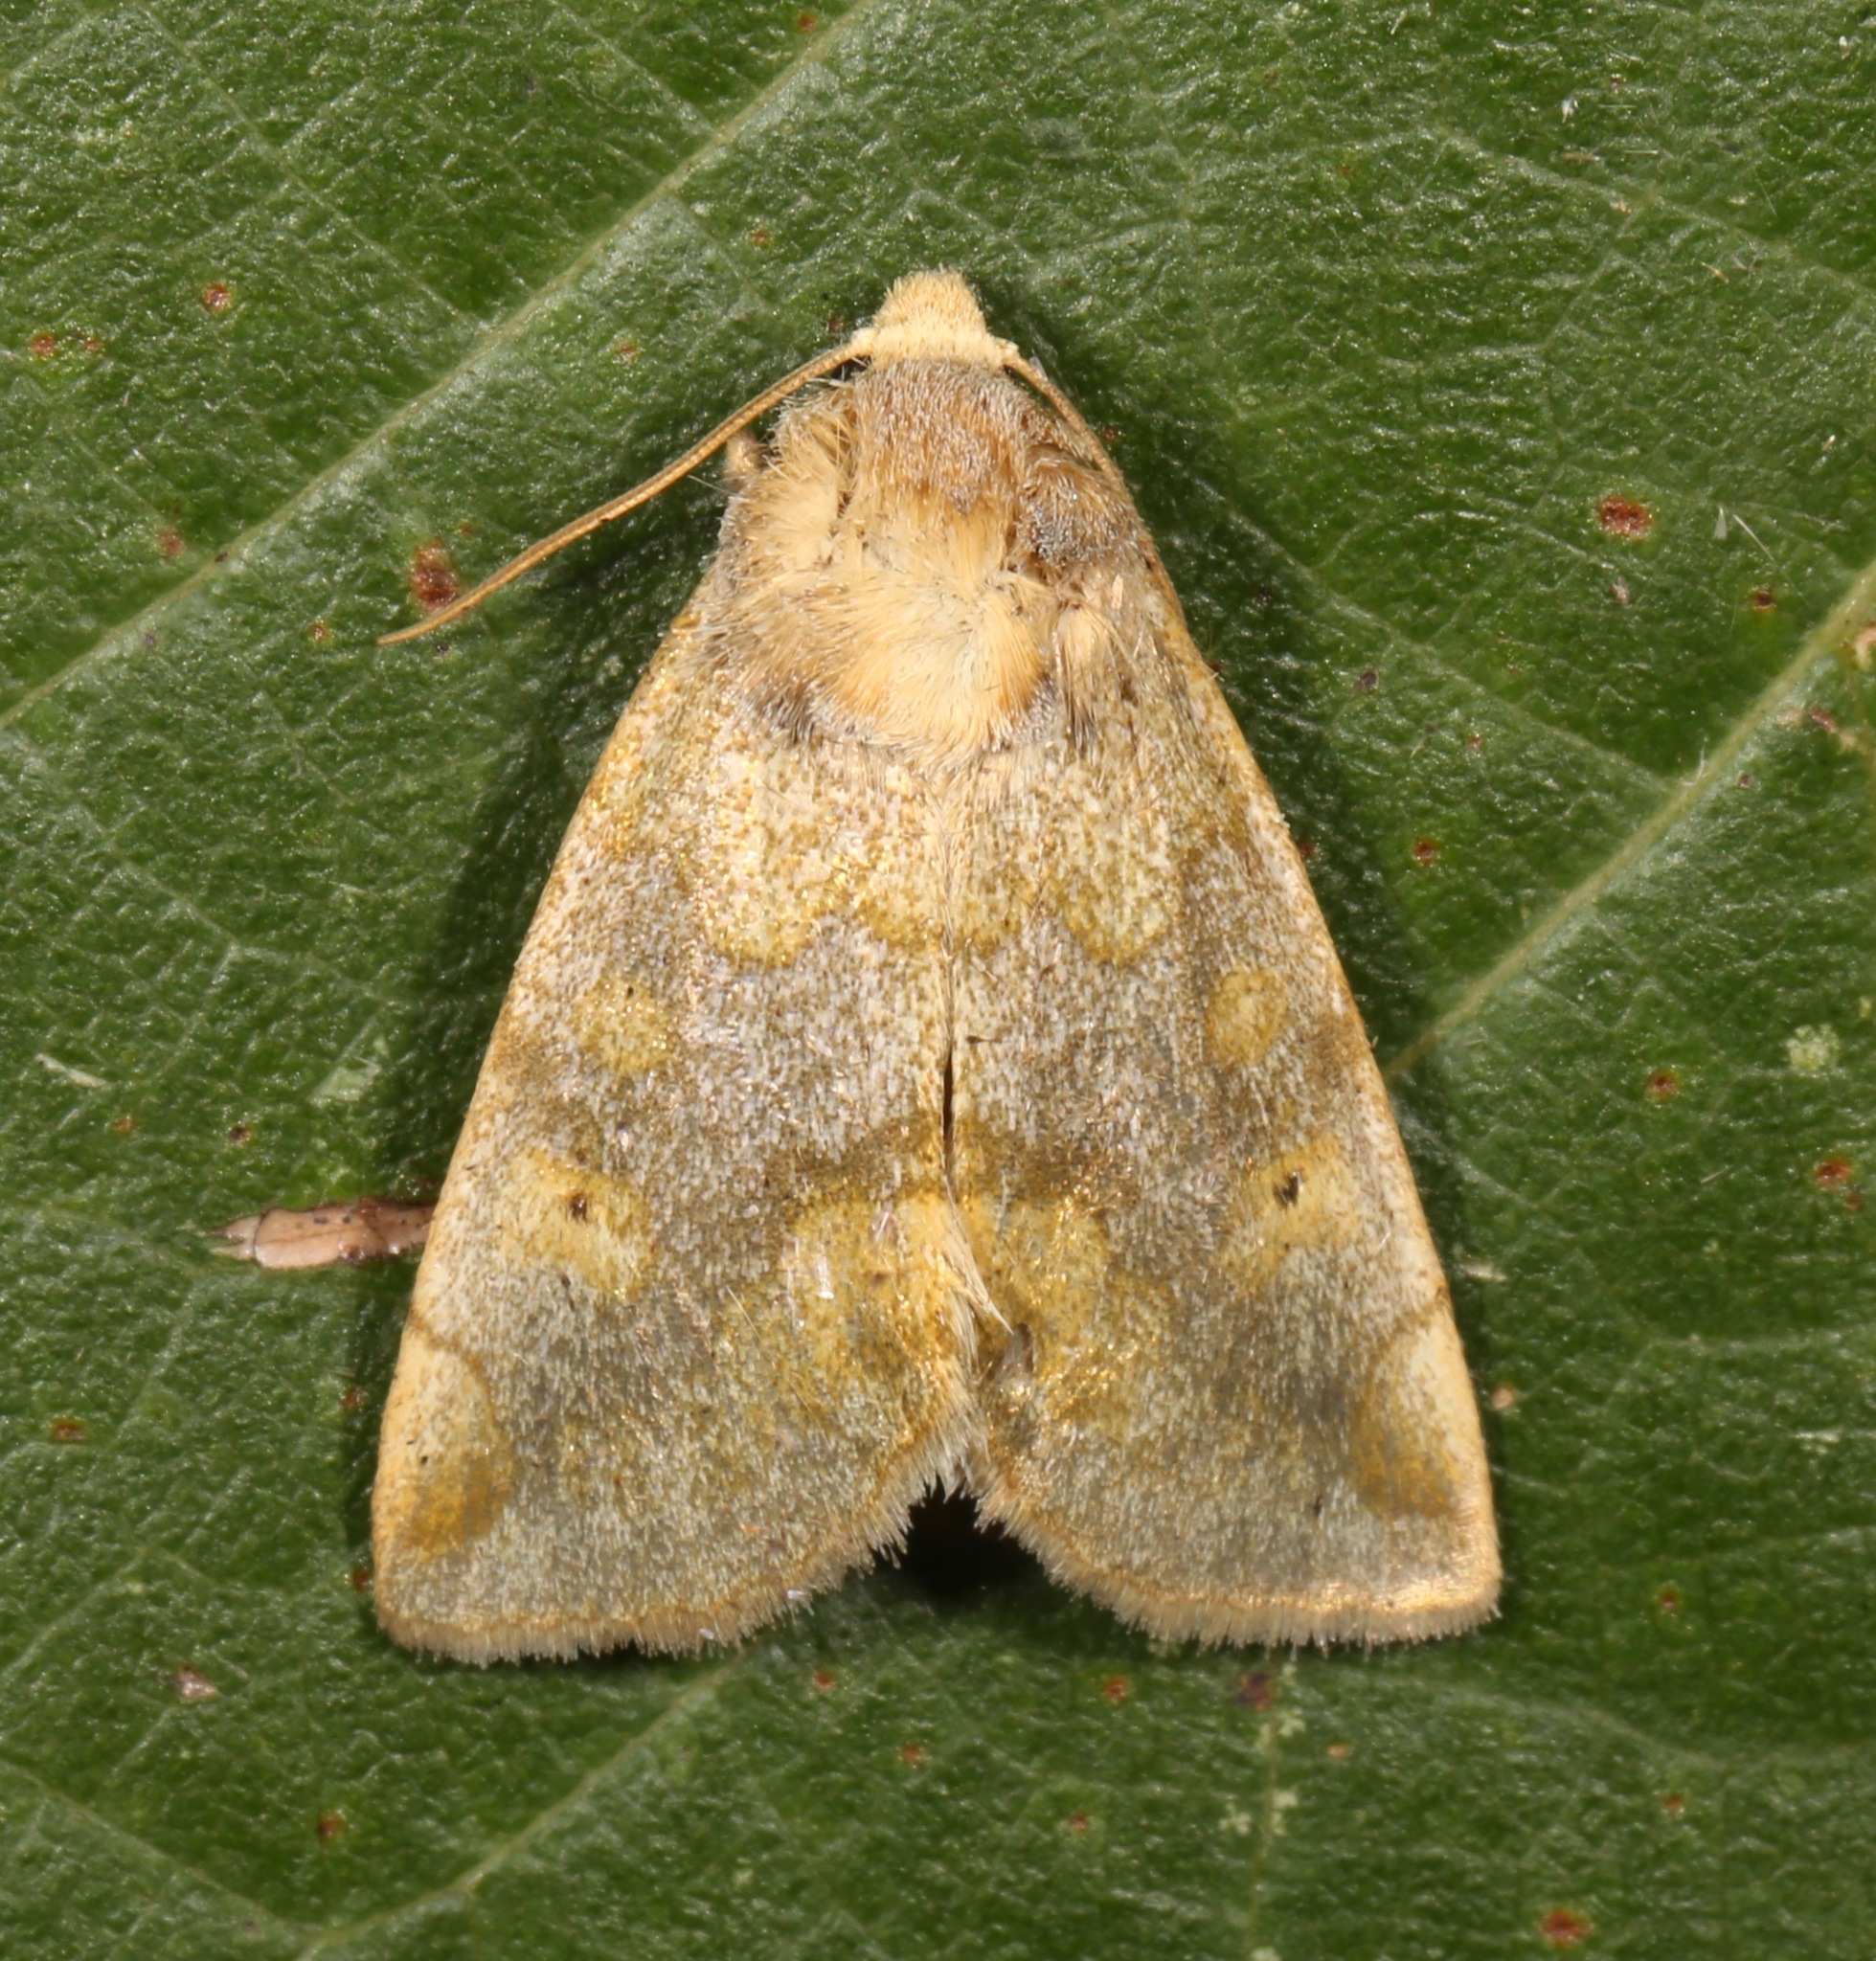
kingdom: Animalia
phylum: Arthropoda
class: Insecta
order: Lepidoptera
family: Noctuidae
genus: Basilodes
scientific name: Basilodes chrysopis
